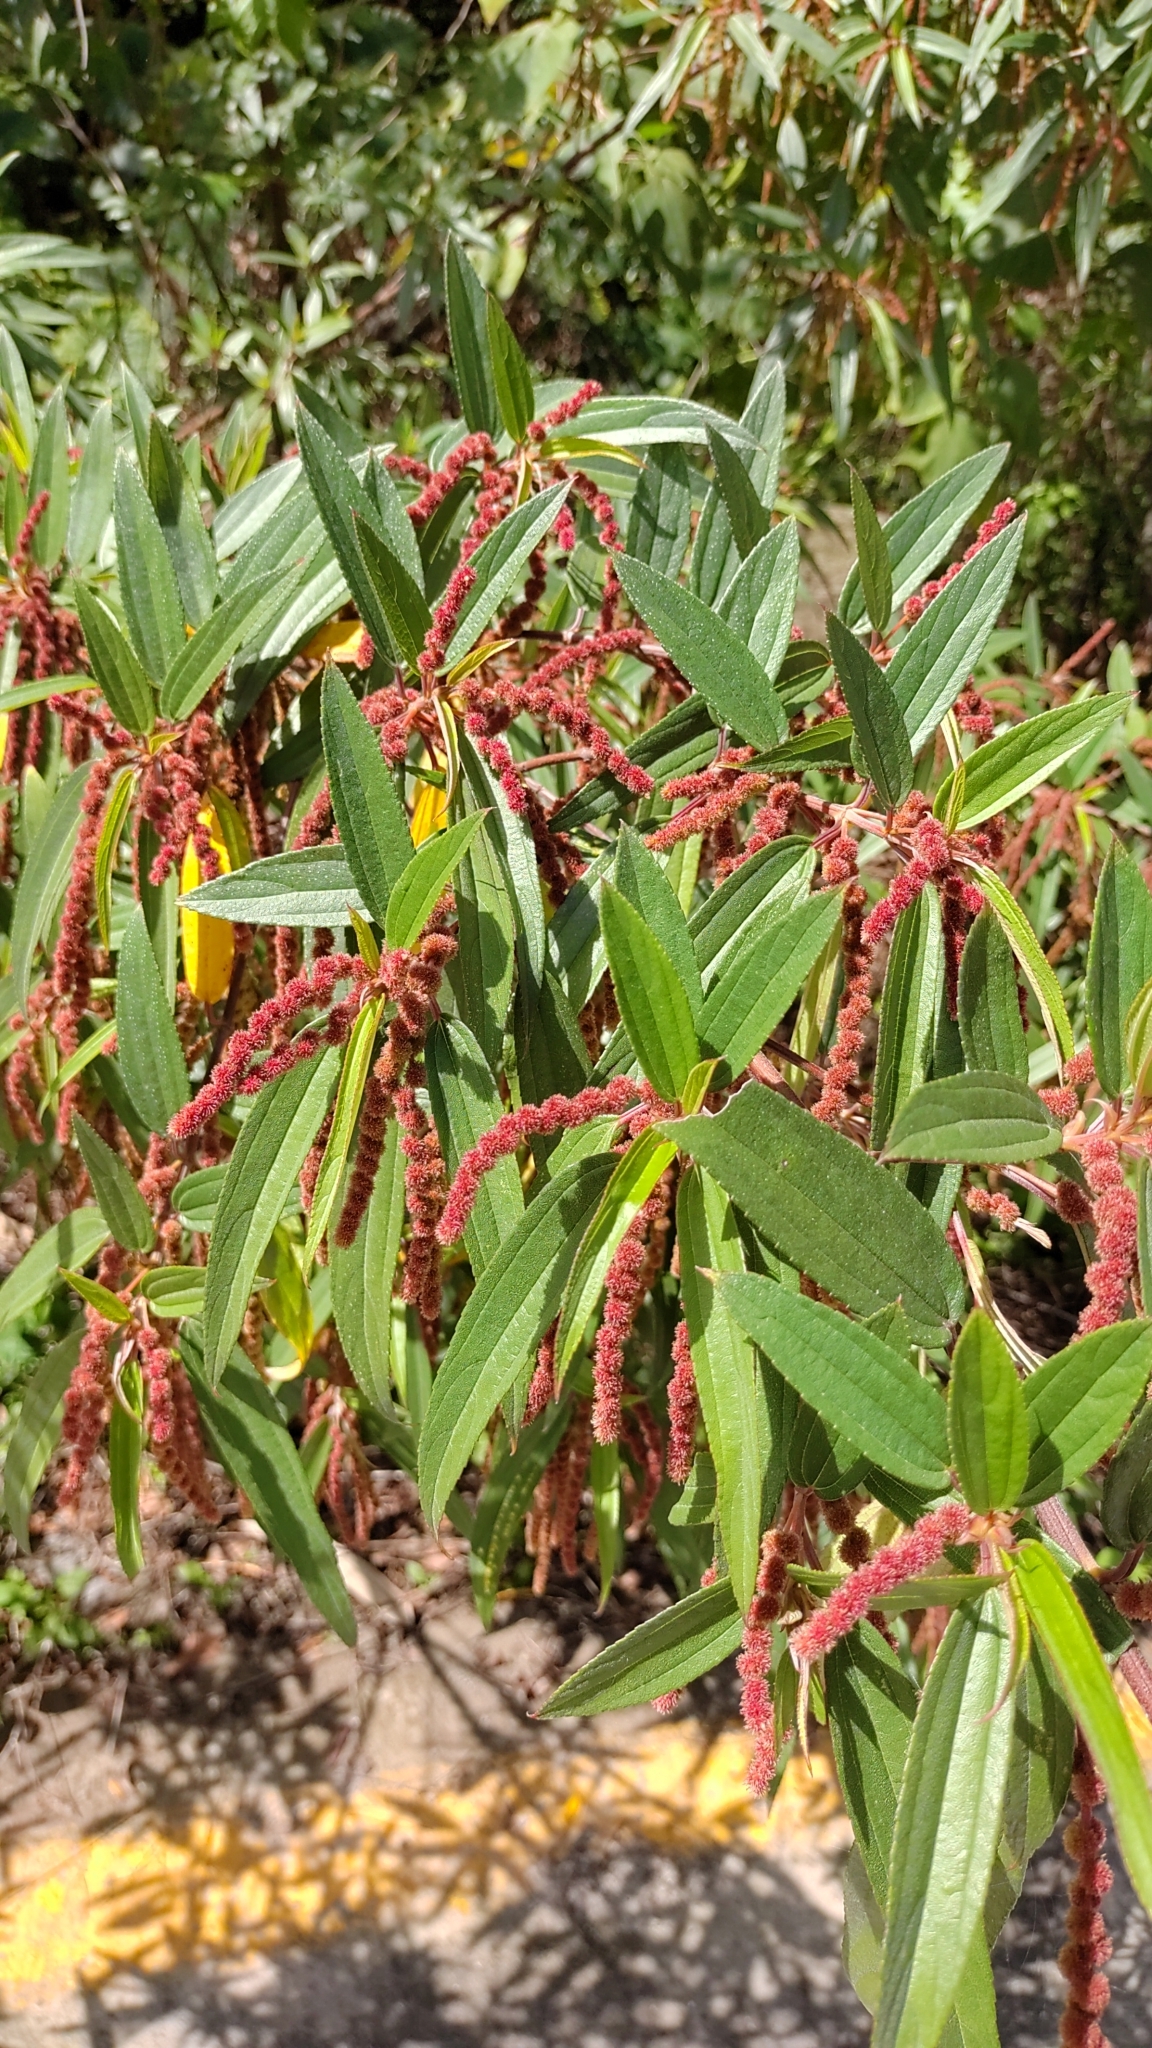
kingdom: Plantae
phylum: Tracheophyta
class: Magnoliopsida
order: Rosales
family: Urticaceae
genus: Boehmeria
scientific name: Boehmeria densiflora
